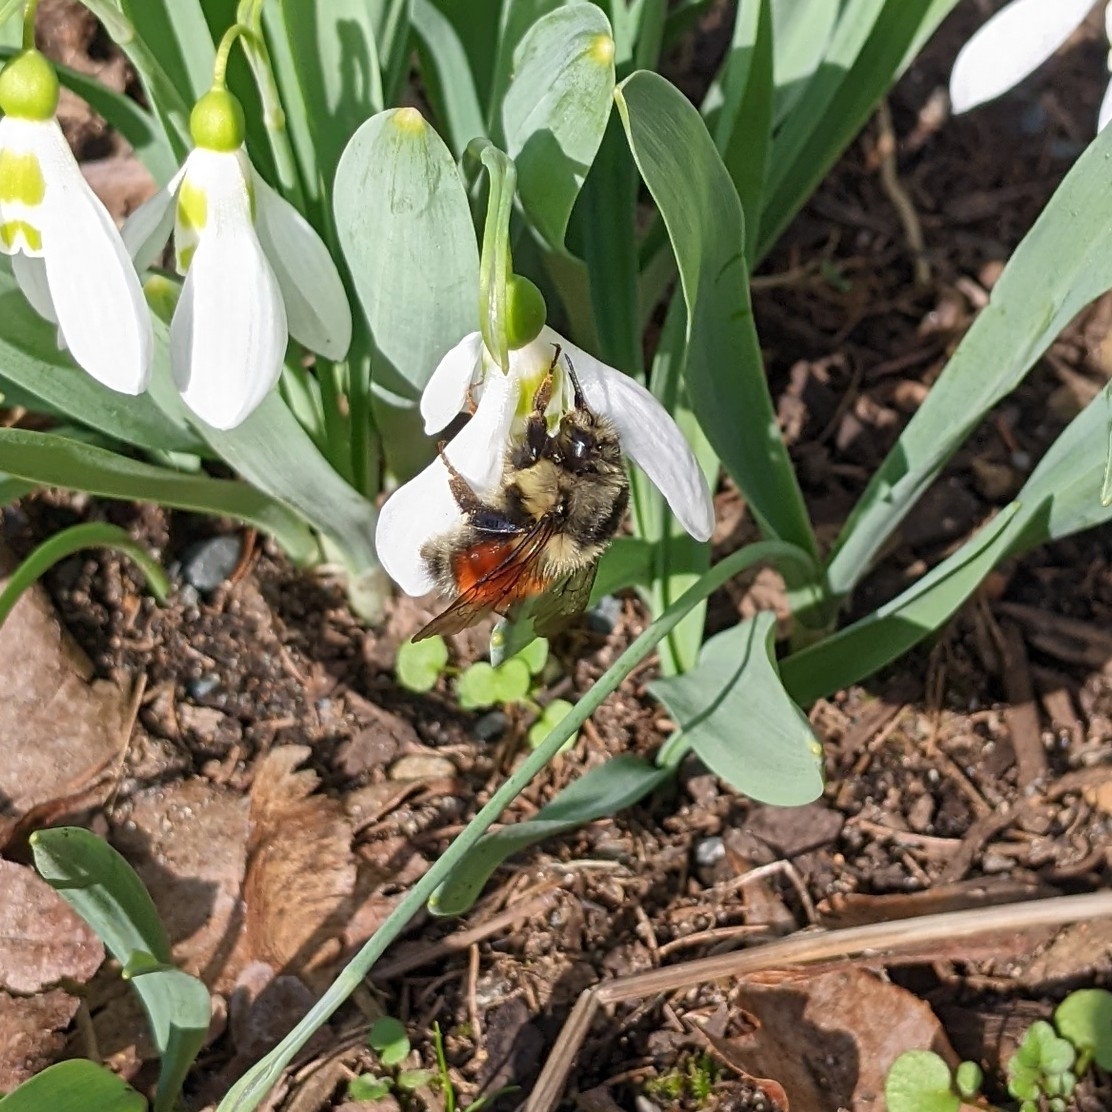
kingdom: Animalia
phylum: Arthropoda
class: Insecta
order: Hymenoptera
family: Apidae
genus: Bombus
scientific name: Bombus melanopygus
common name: Black tail bumble bee
